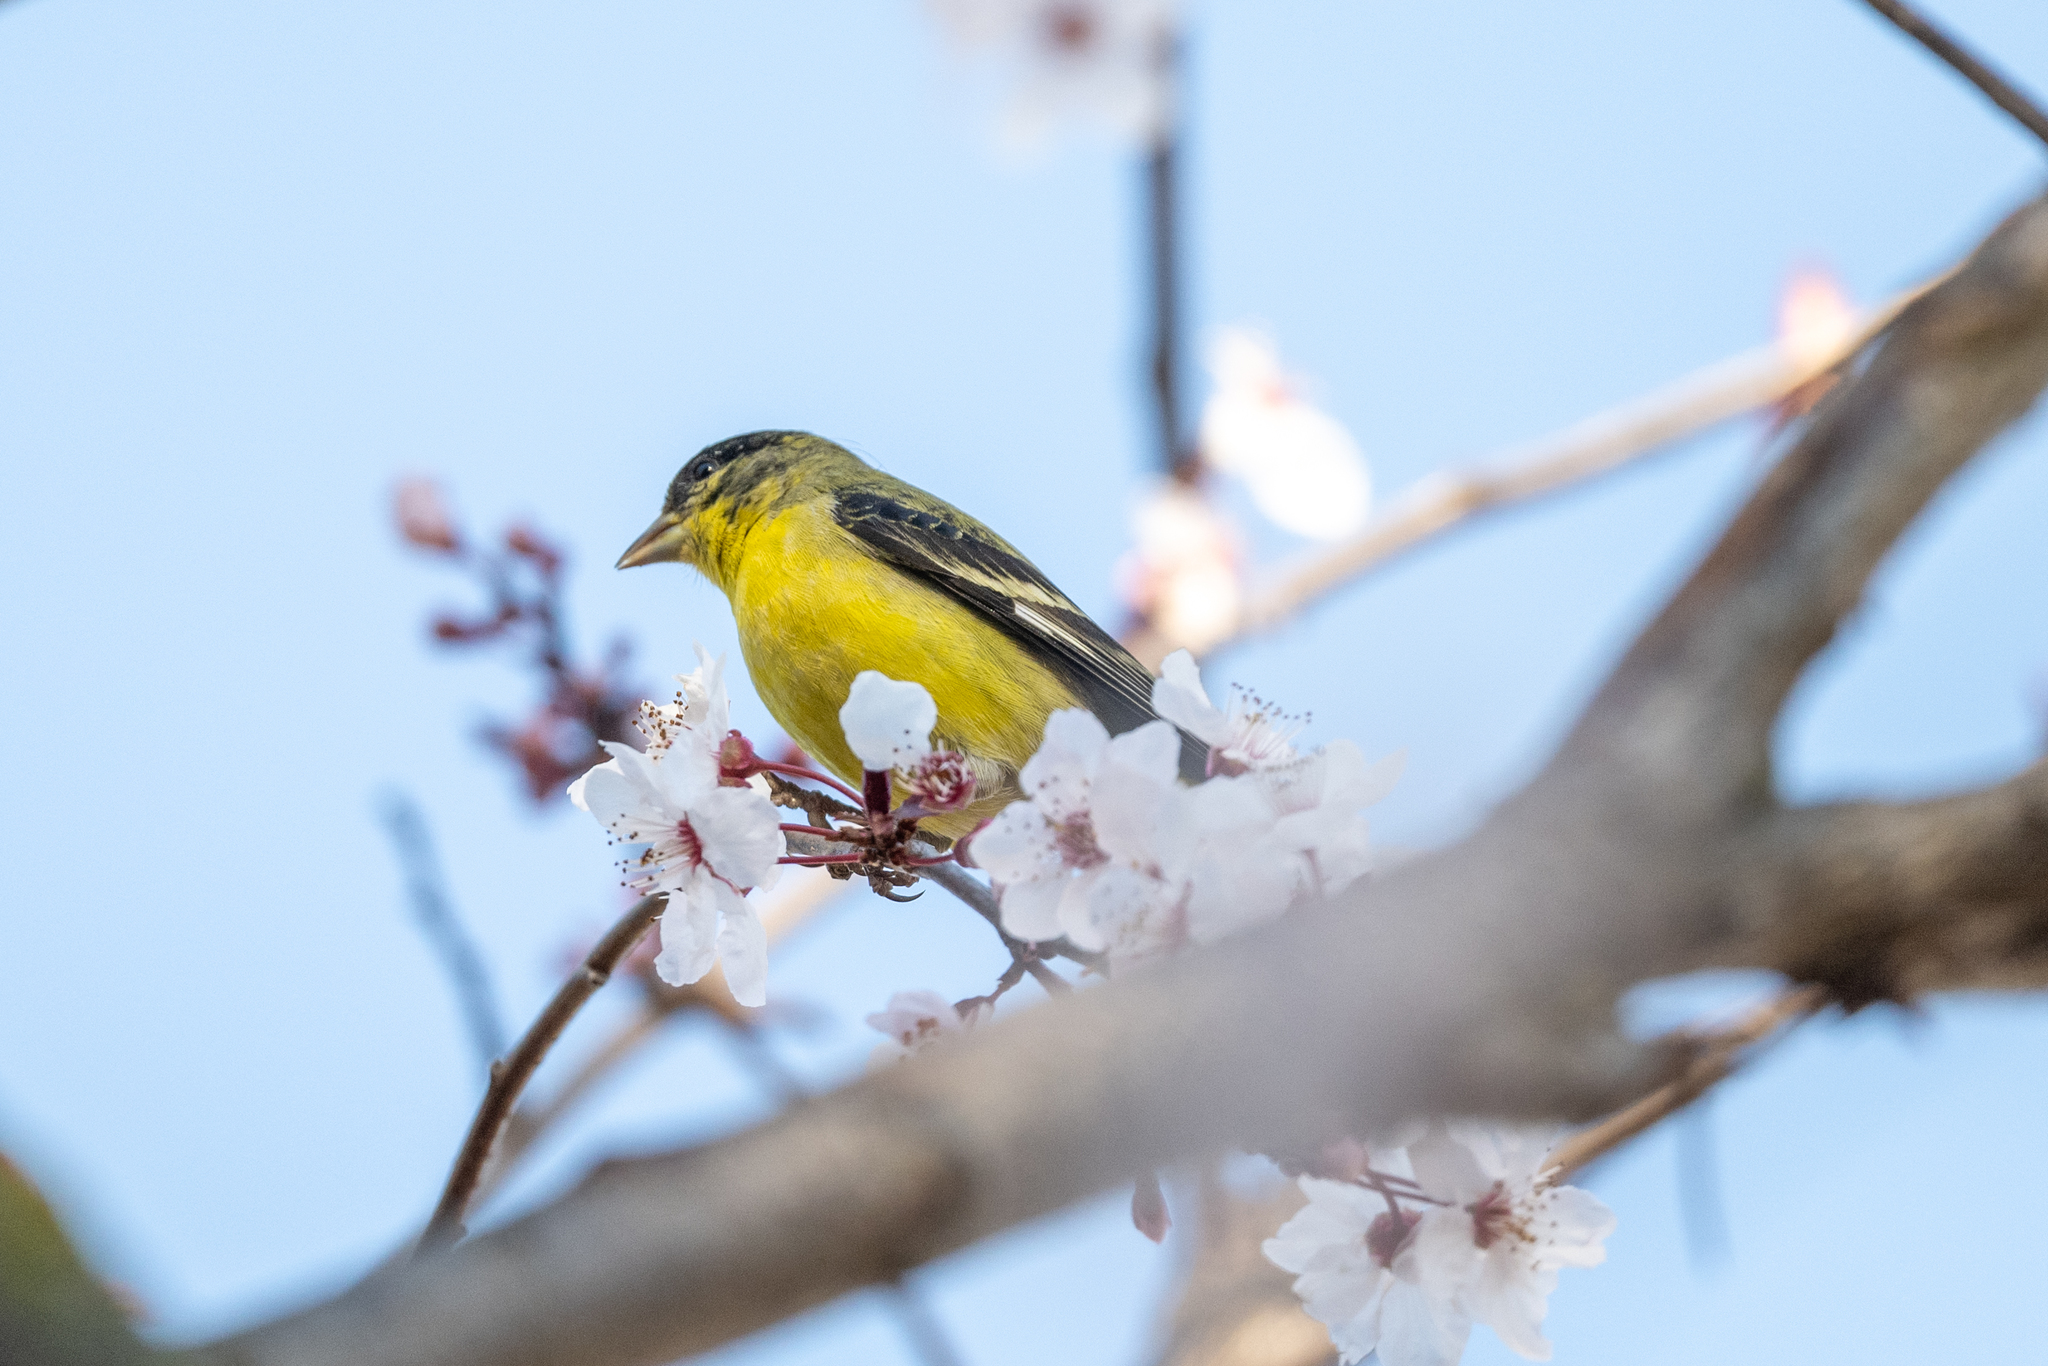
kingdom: Animalia
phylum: Chordata
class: Aves
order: Passeriformes
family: Fringillidae
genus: Spinus
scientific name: Spinus psaltria
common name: Lesser goldfinch
